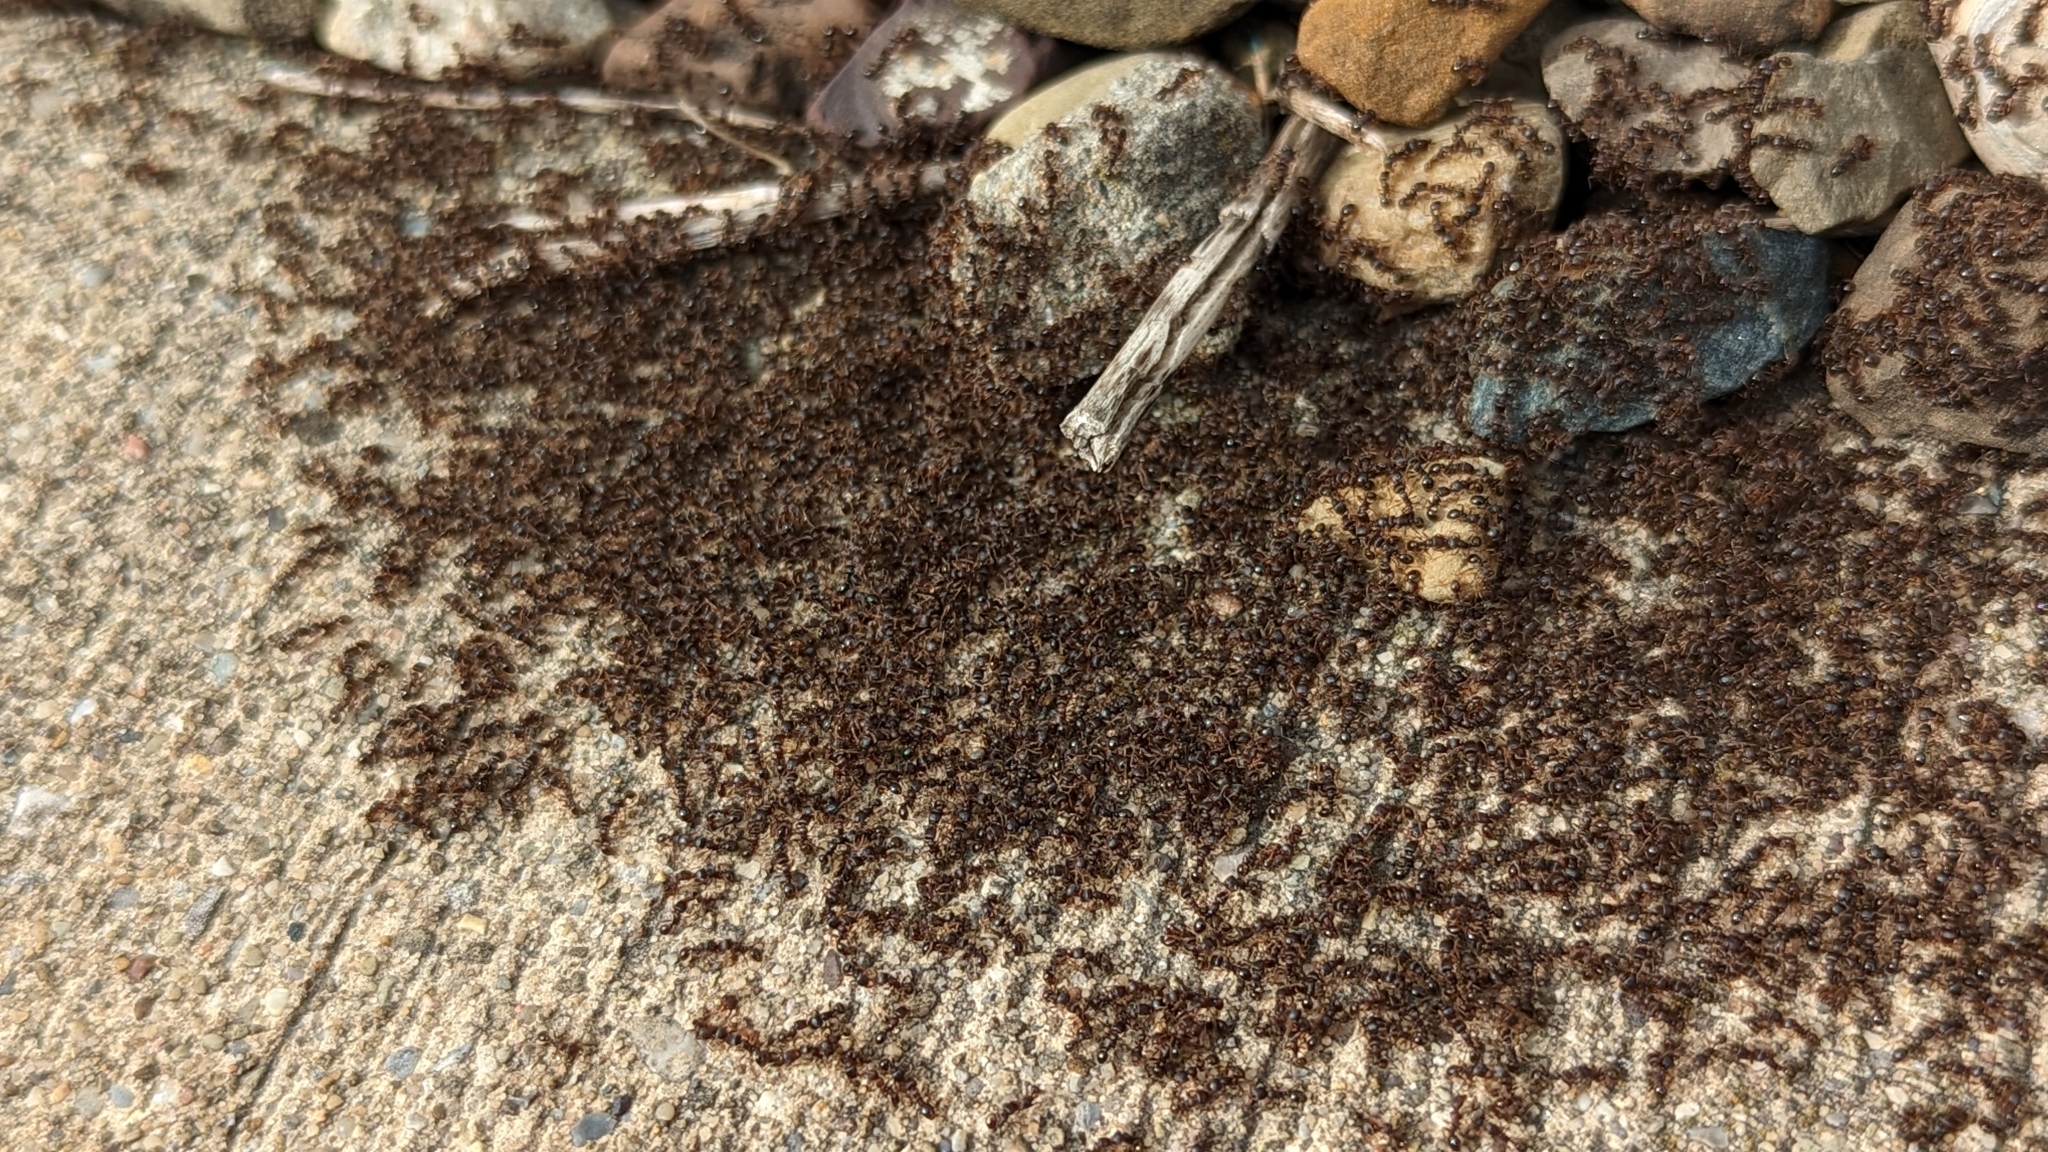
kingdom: Animalia
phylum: Arthropoda
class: Insecta
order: Hymenoptera
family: Formicidae
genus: Tetramorium
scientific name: Tetramorium immigrans
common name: Pavement ant
